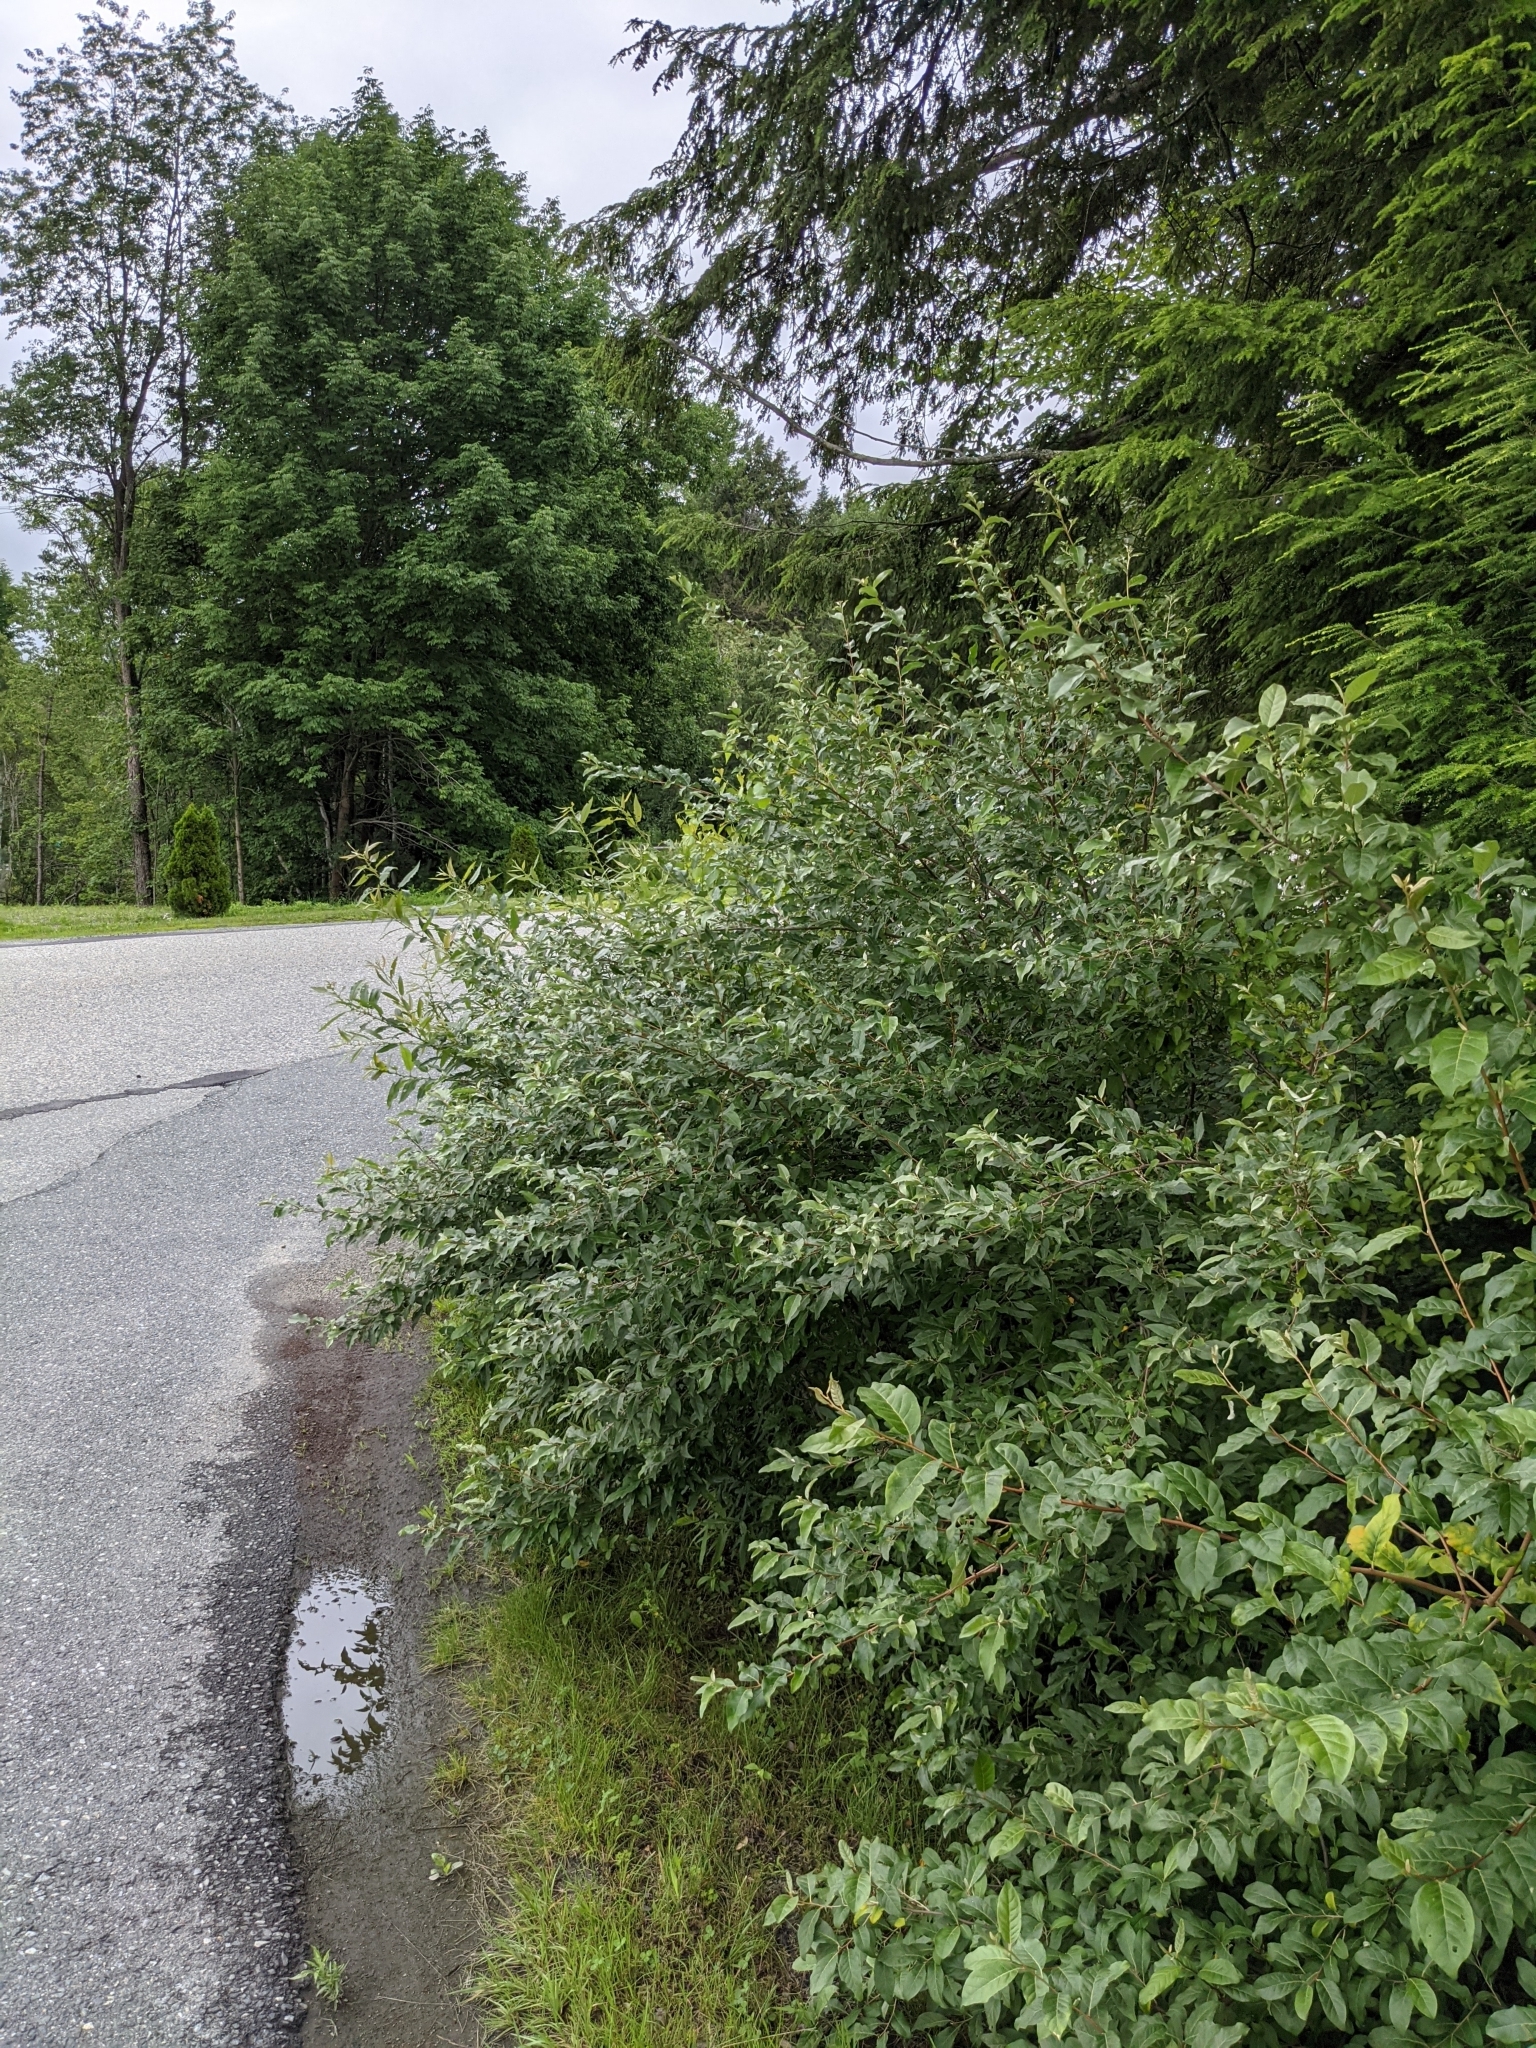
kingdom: Plantae
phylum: Tracheophyta
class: Magnoliopsida
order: Rosales
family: Elaeagnaceae
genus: Elaeagnus
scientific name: Elaeagnus umbellata
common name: Autumn olive
